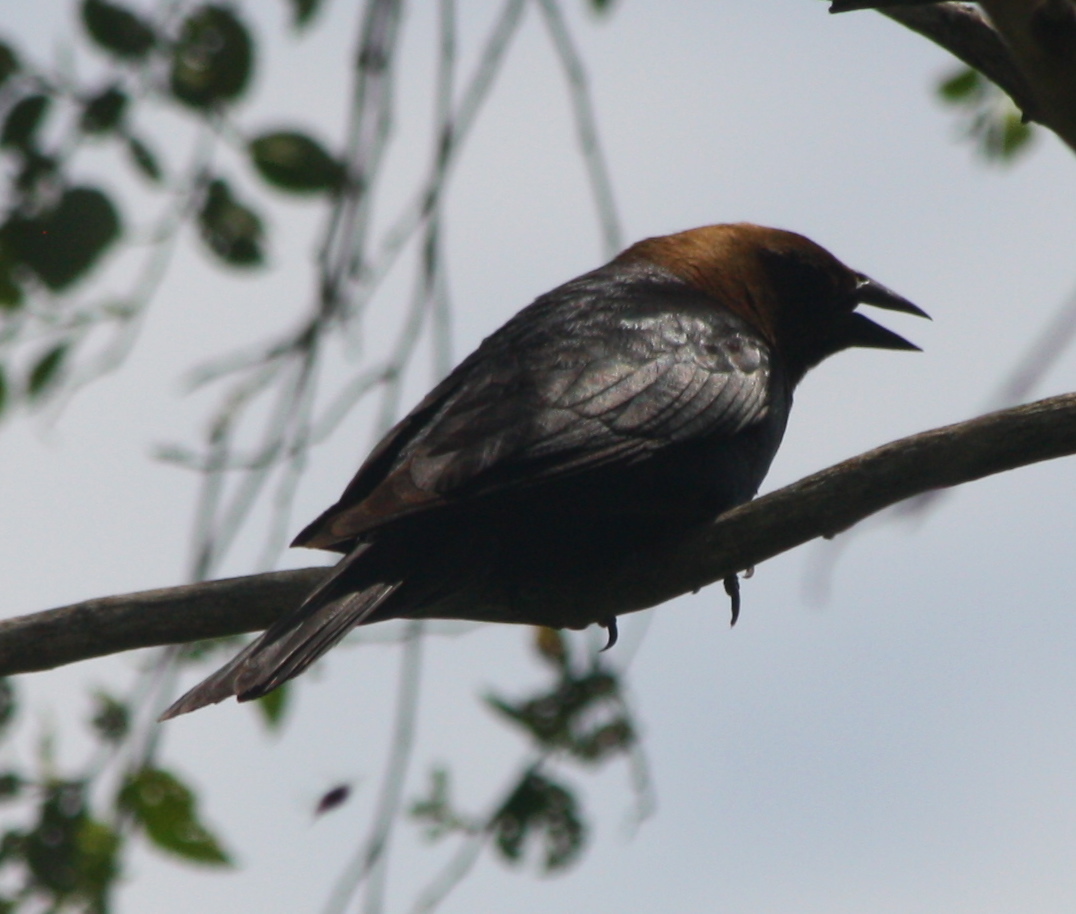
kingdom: Animalia
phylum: Chordata
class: Aves
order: Passeriformes
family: Icteridae
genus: Molothrus
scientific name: Molothrus ater
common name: Brown-headed cowbird
